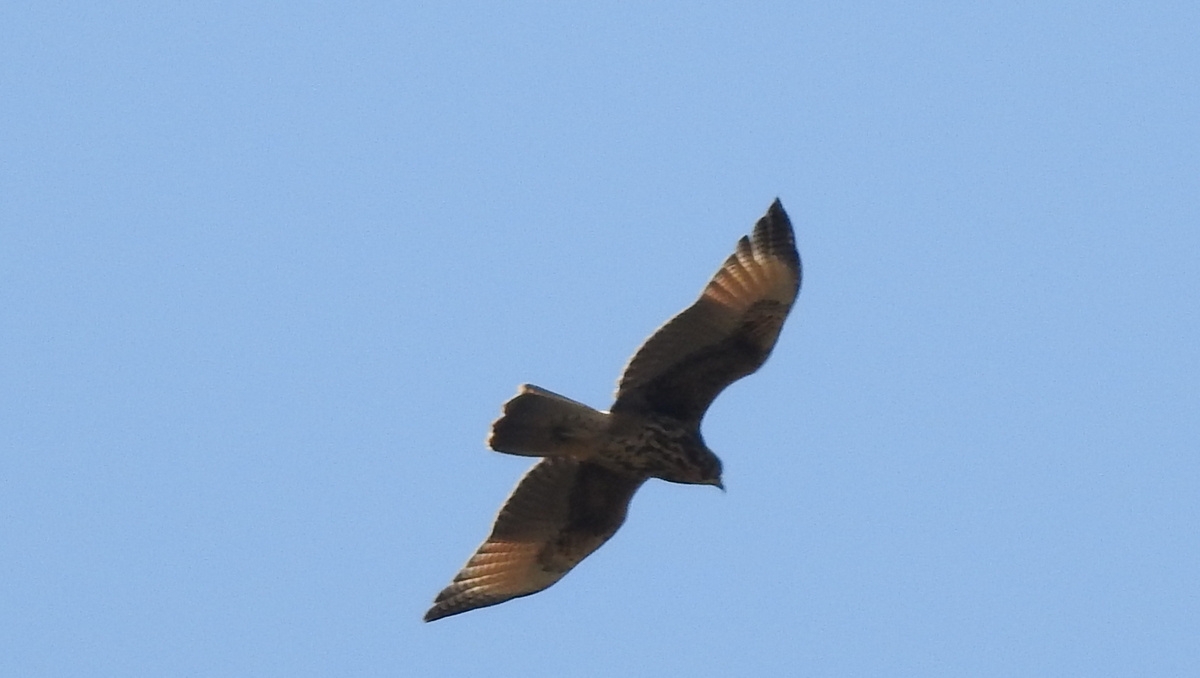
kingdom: Animalia
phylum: Chordata
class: Aves
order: Accipitriformes
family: Accipitridae
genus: Parabuteo
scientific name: Parabuteo unicinctus
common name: Harris's hawk
